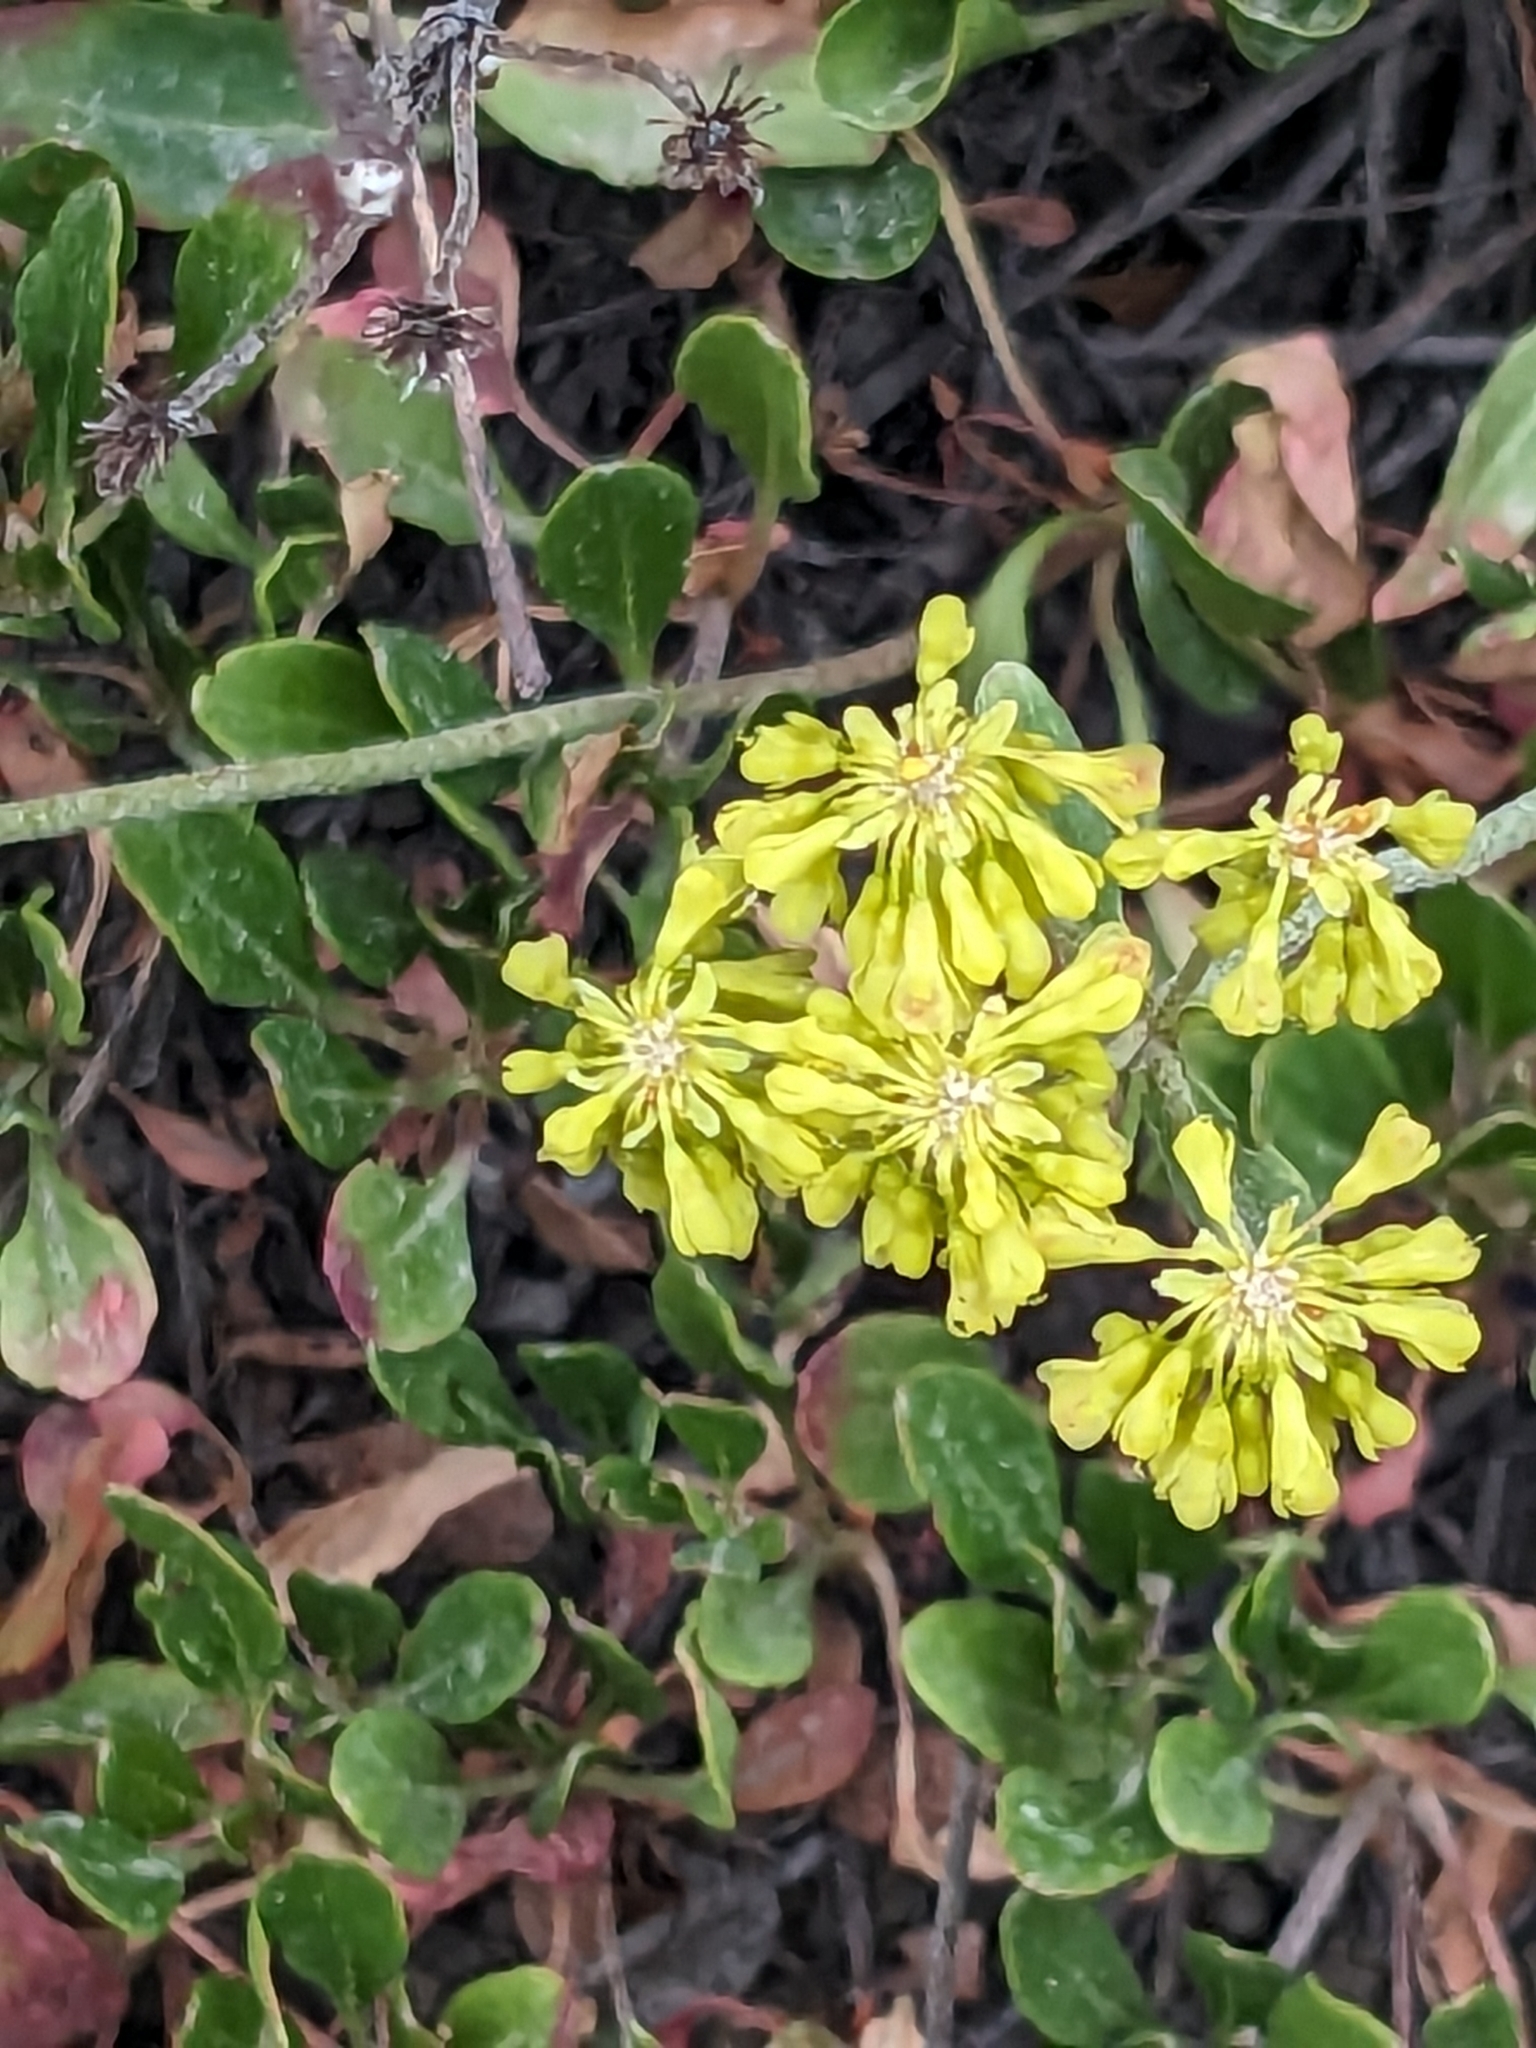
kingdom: Plantae
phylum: Tracheophyta
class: Magnoliopsida
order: Caryophyllales
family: Polygonaceae
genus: Eriogonum
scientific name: Eriogonum umbellatum
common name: Sulfur-buckwheat
